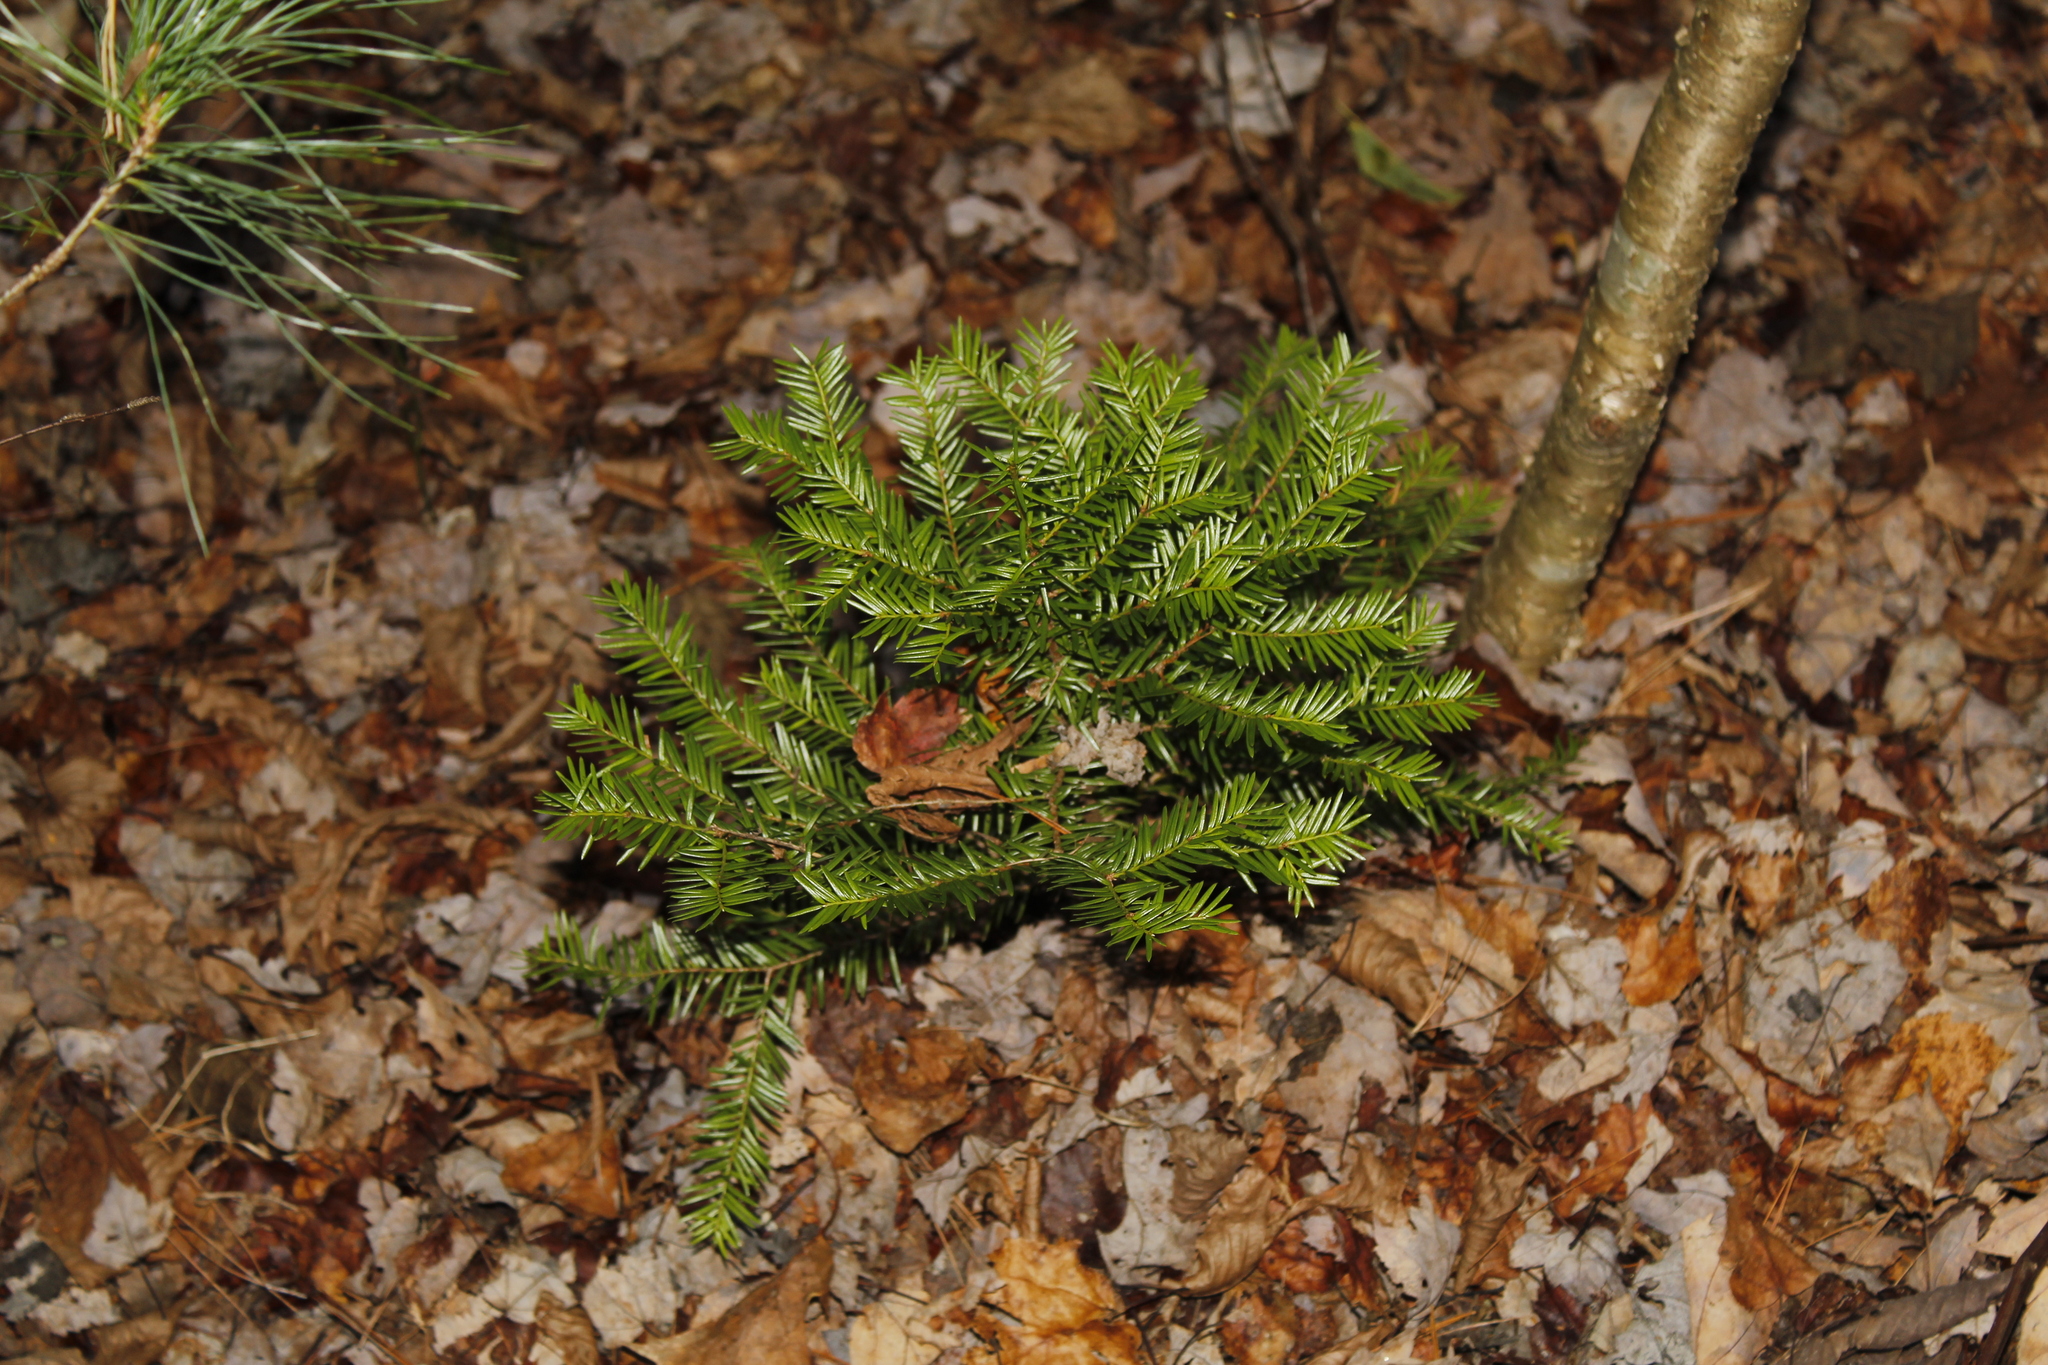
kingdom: Plantae
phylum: Tracheophyta
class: Pinopsida
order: Pinales
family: Taxaceae
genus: Taxus
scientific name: Taxus canadensis
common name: American yew
